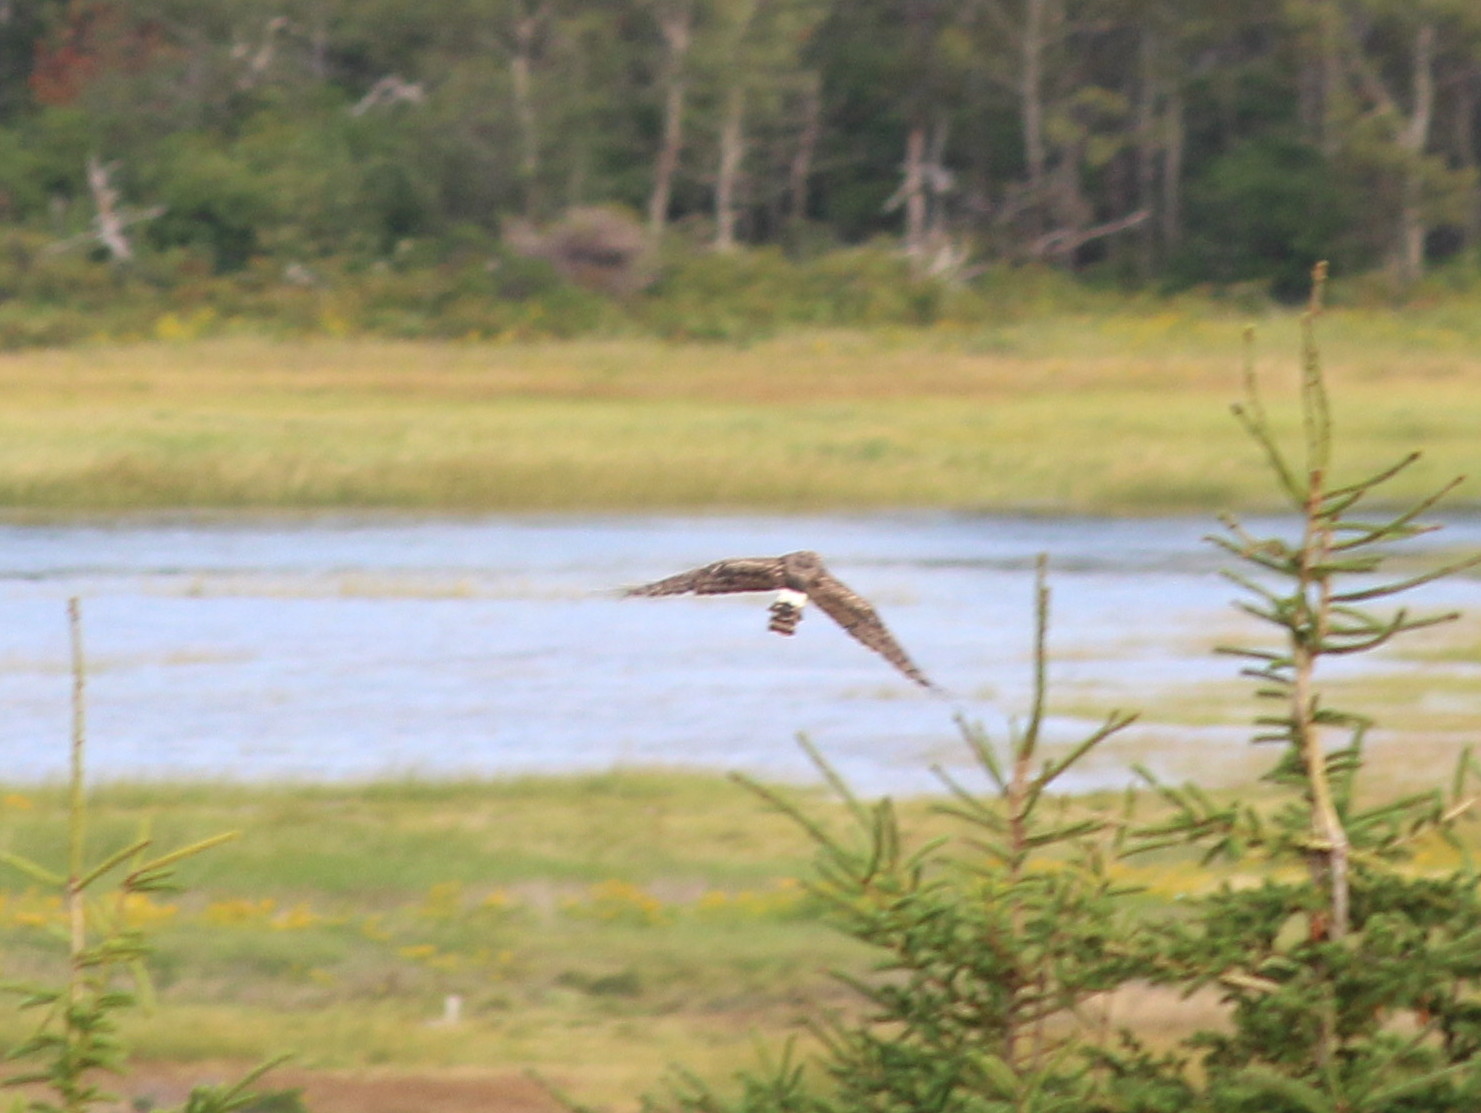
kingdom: Animalia
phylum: Chordata
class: Aves
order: Accipitriformes
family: Accipitridae
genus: Circus
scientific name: Circus cyaneus
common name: Hen harrier
